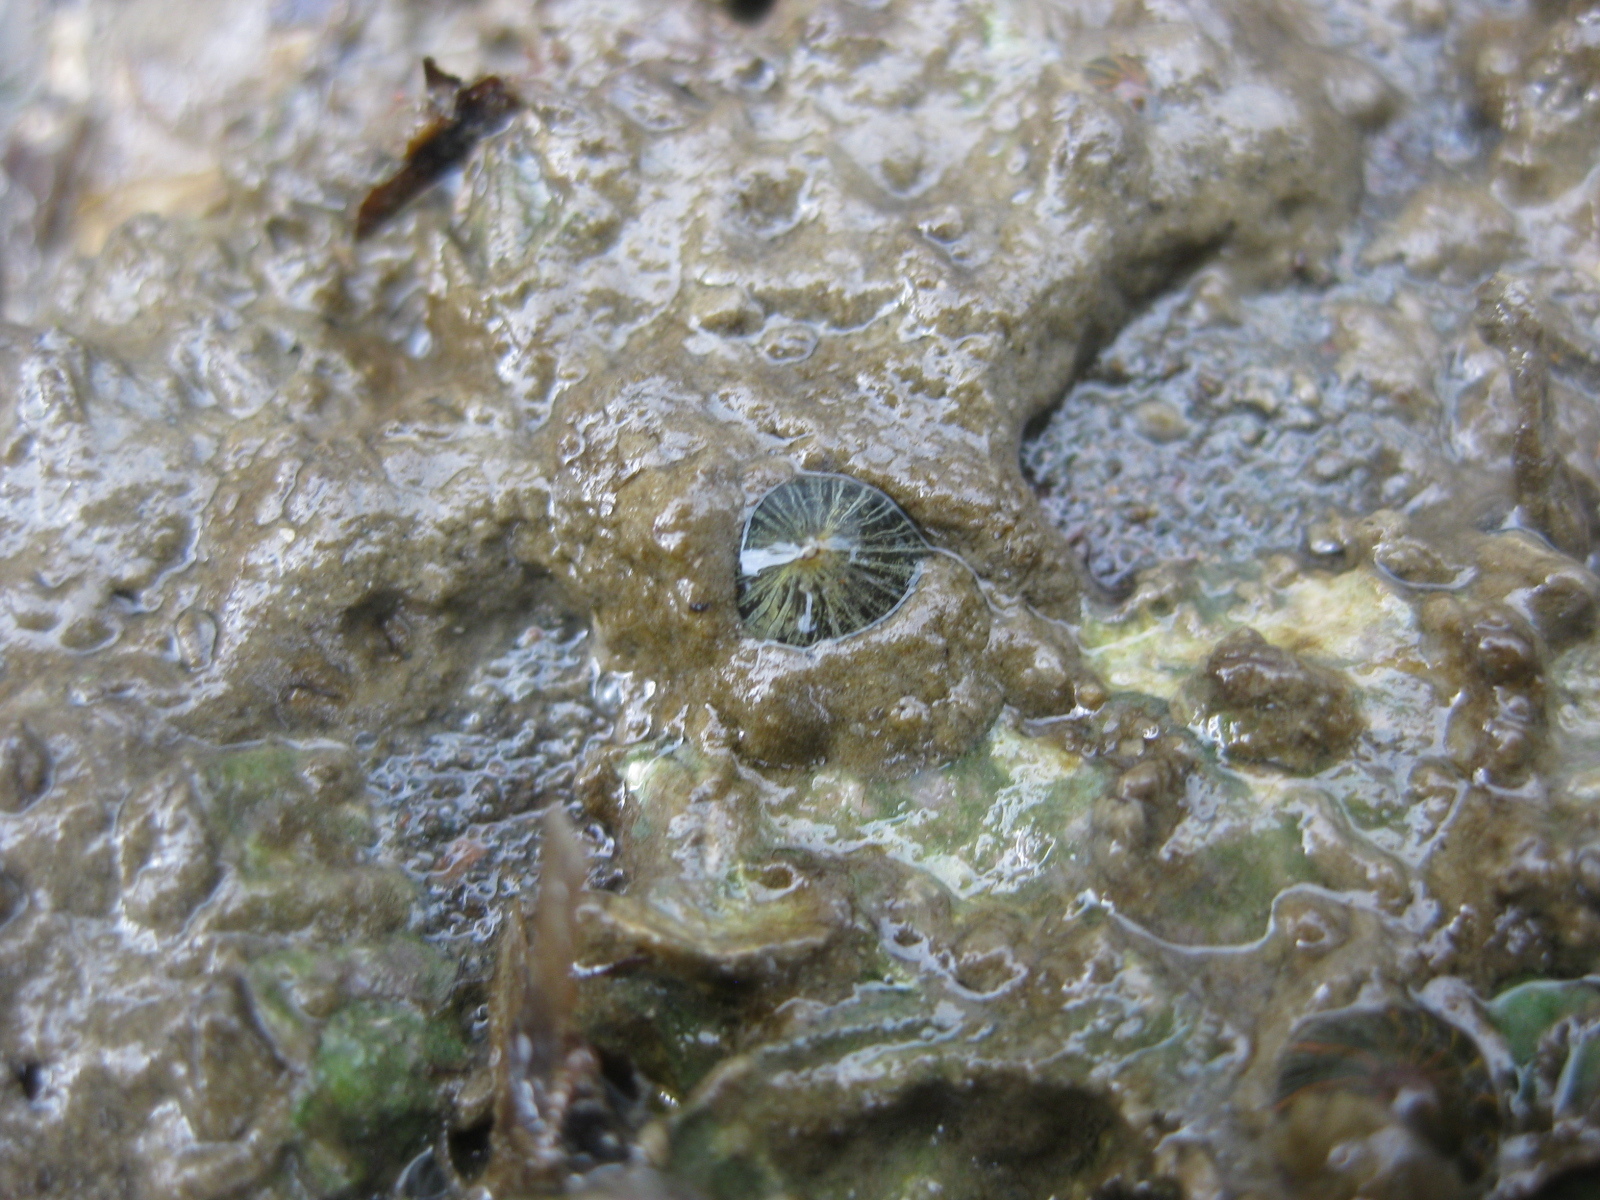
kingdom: Animalia
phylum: Cnidaria
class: Anthozoa
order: Actiniaria
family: Diadumenidae
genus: Diadumene
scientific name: Diadumene lineata
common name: Orange-striped anemone
